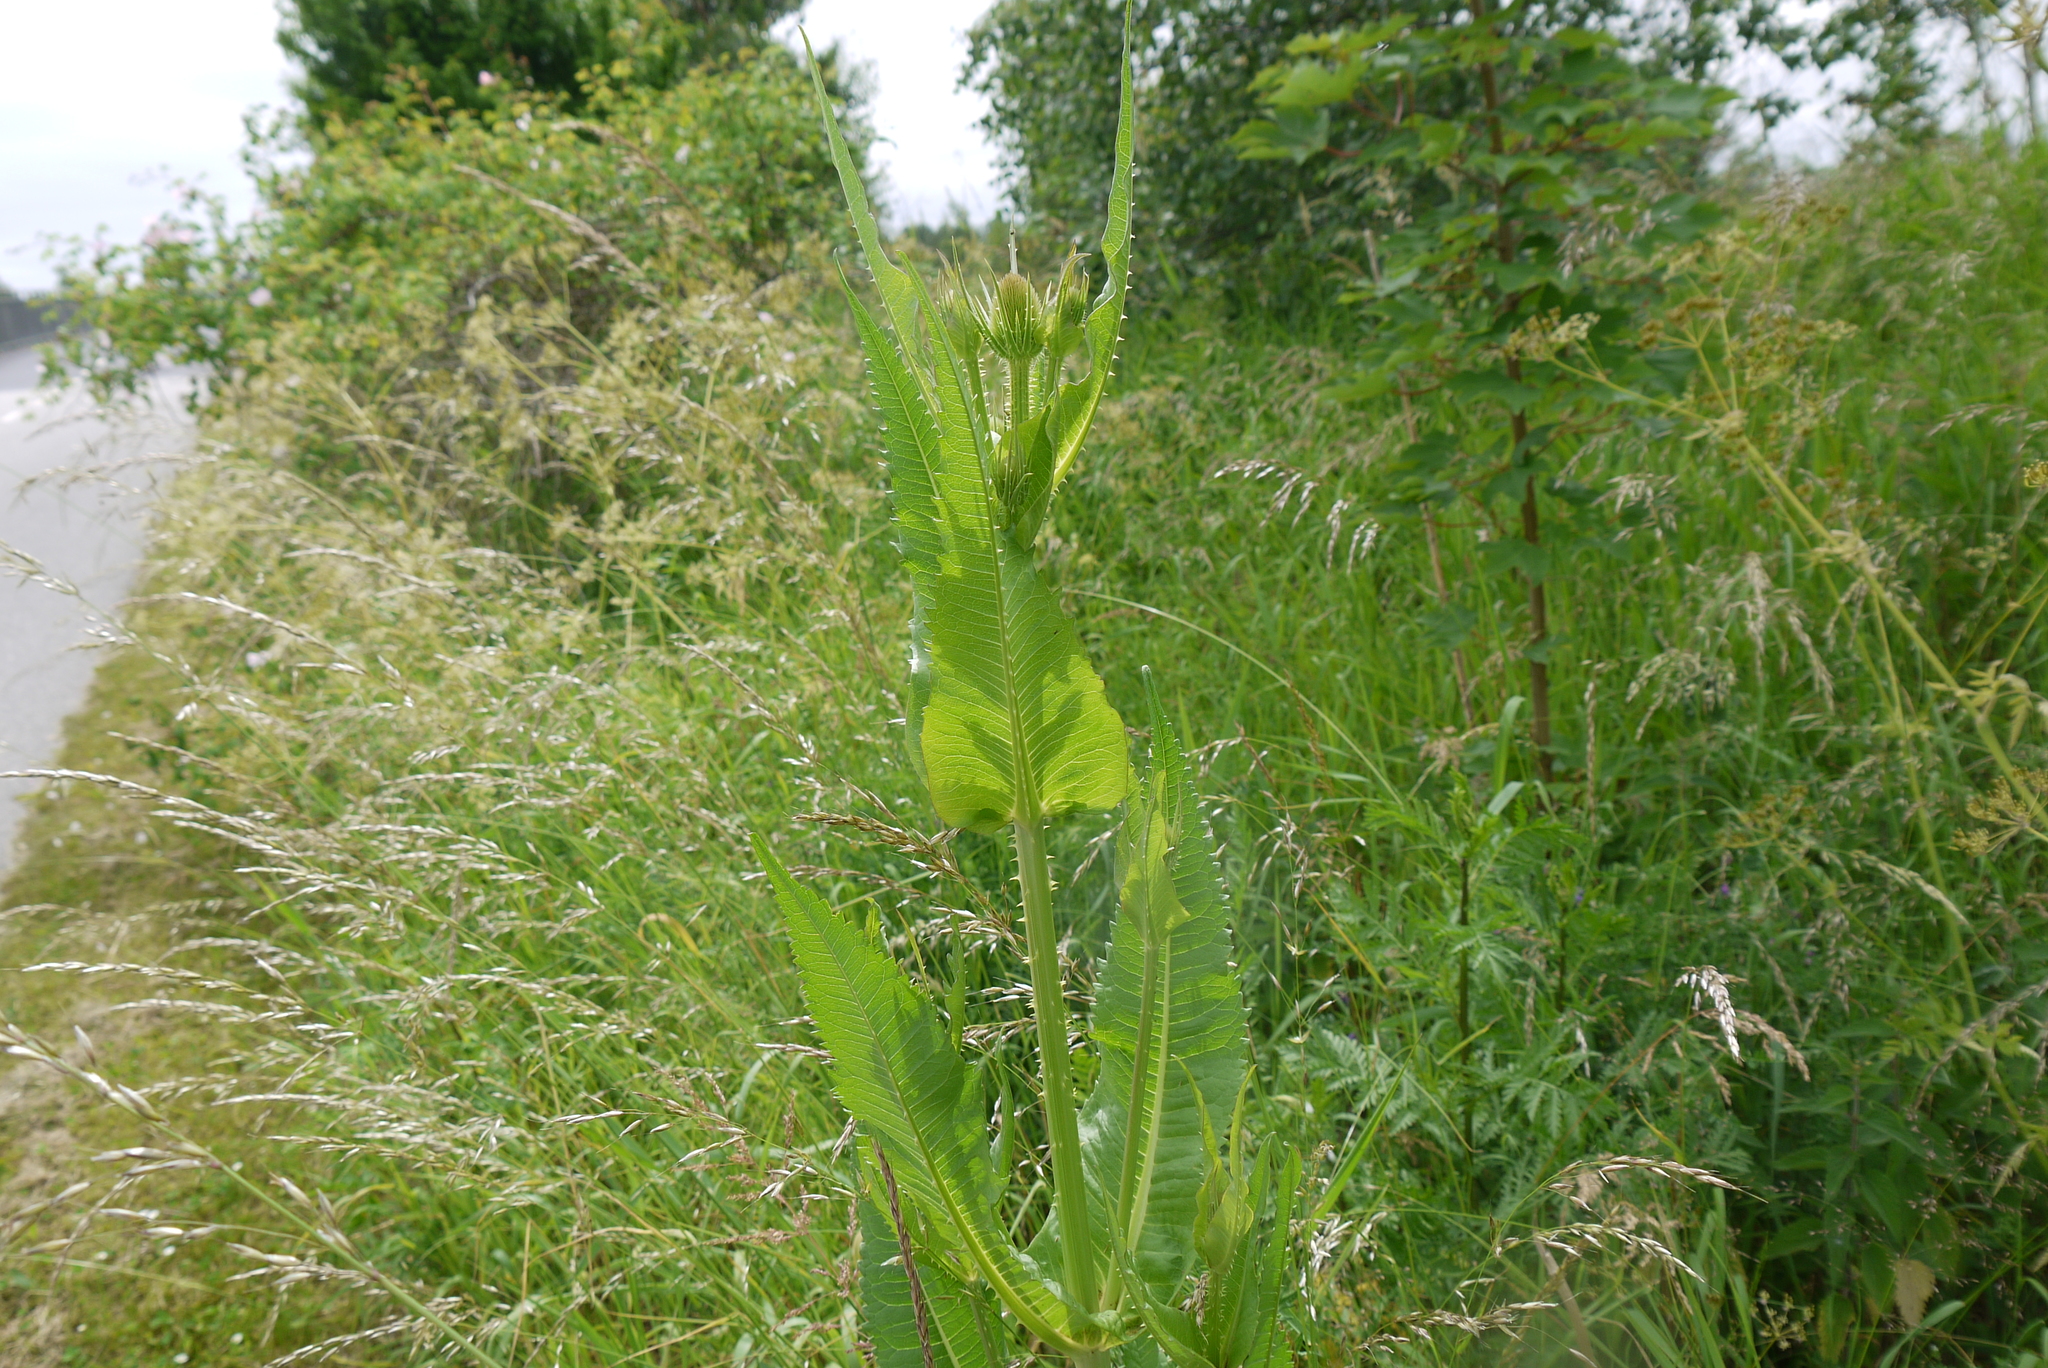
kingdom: Plantae
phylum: Tracheophyta
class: Magnoliopsida
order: Dipsacales
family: Caprifoliaceae
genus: Dipsacus
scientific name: Dipsacus fullonum
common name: Teasel
